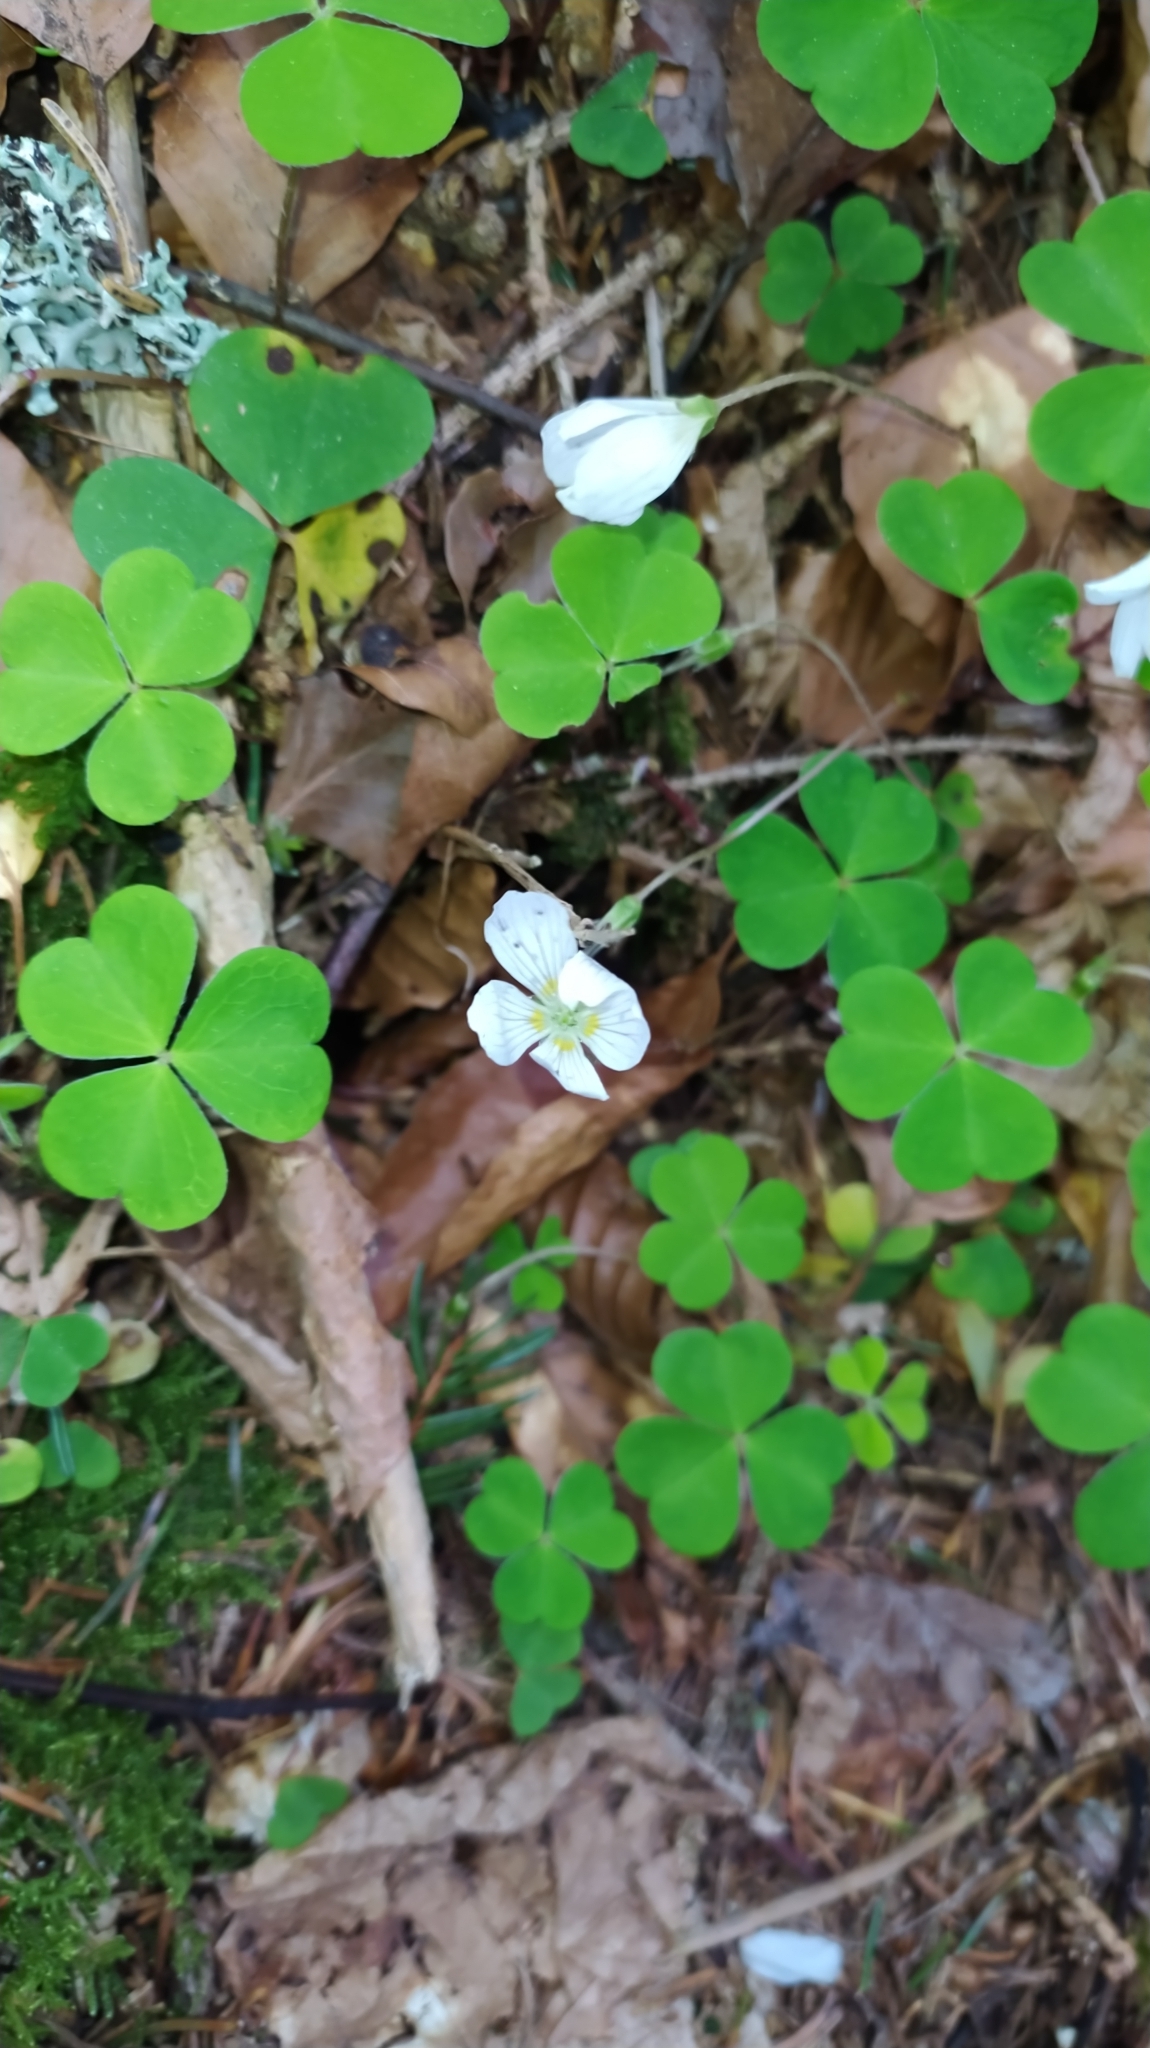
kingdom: Plantae
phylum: Tracheophyta
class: Magnoliopsida
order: Oxalidales
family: Oxalidaceae
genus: Oxalis
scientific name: Oxalis acetosella
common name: Wood-sorrel
